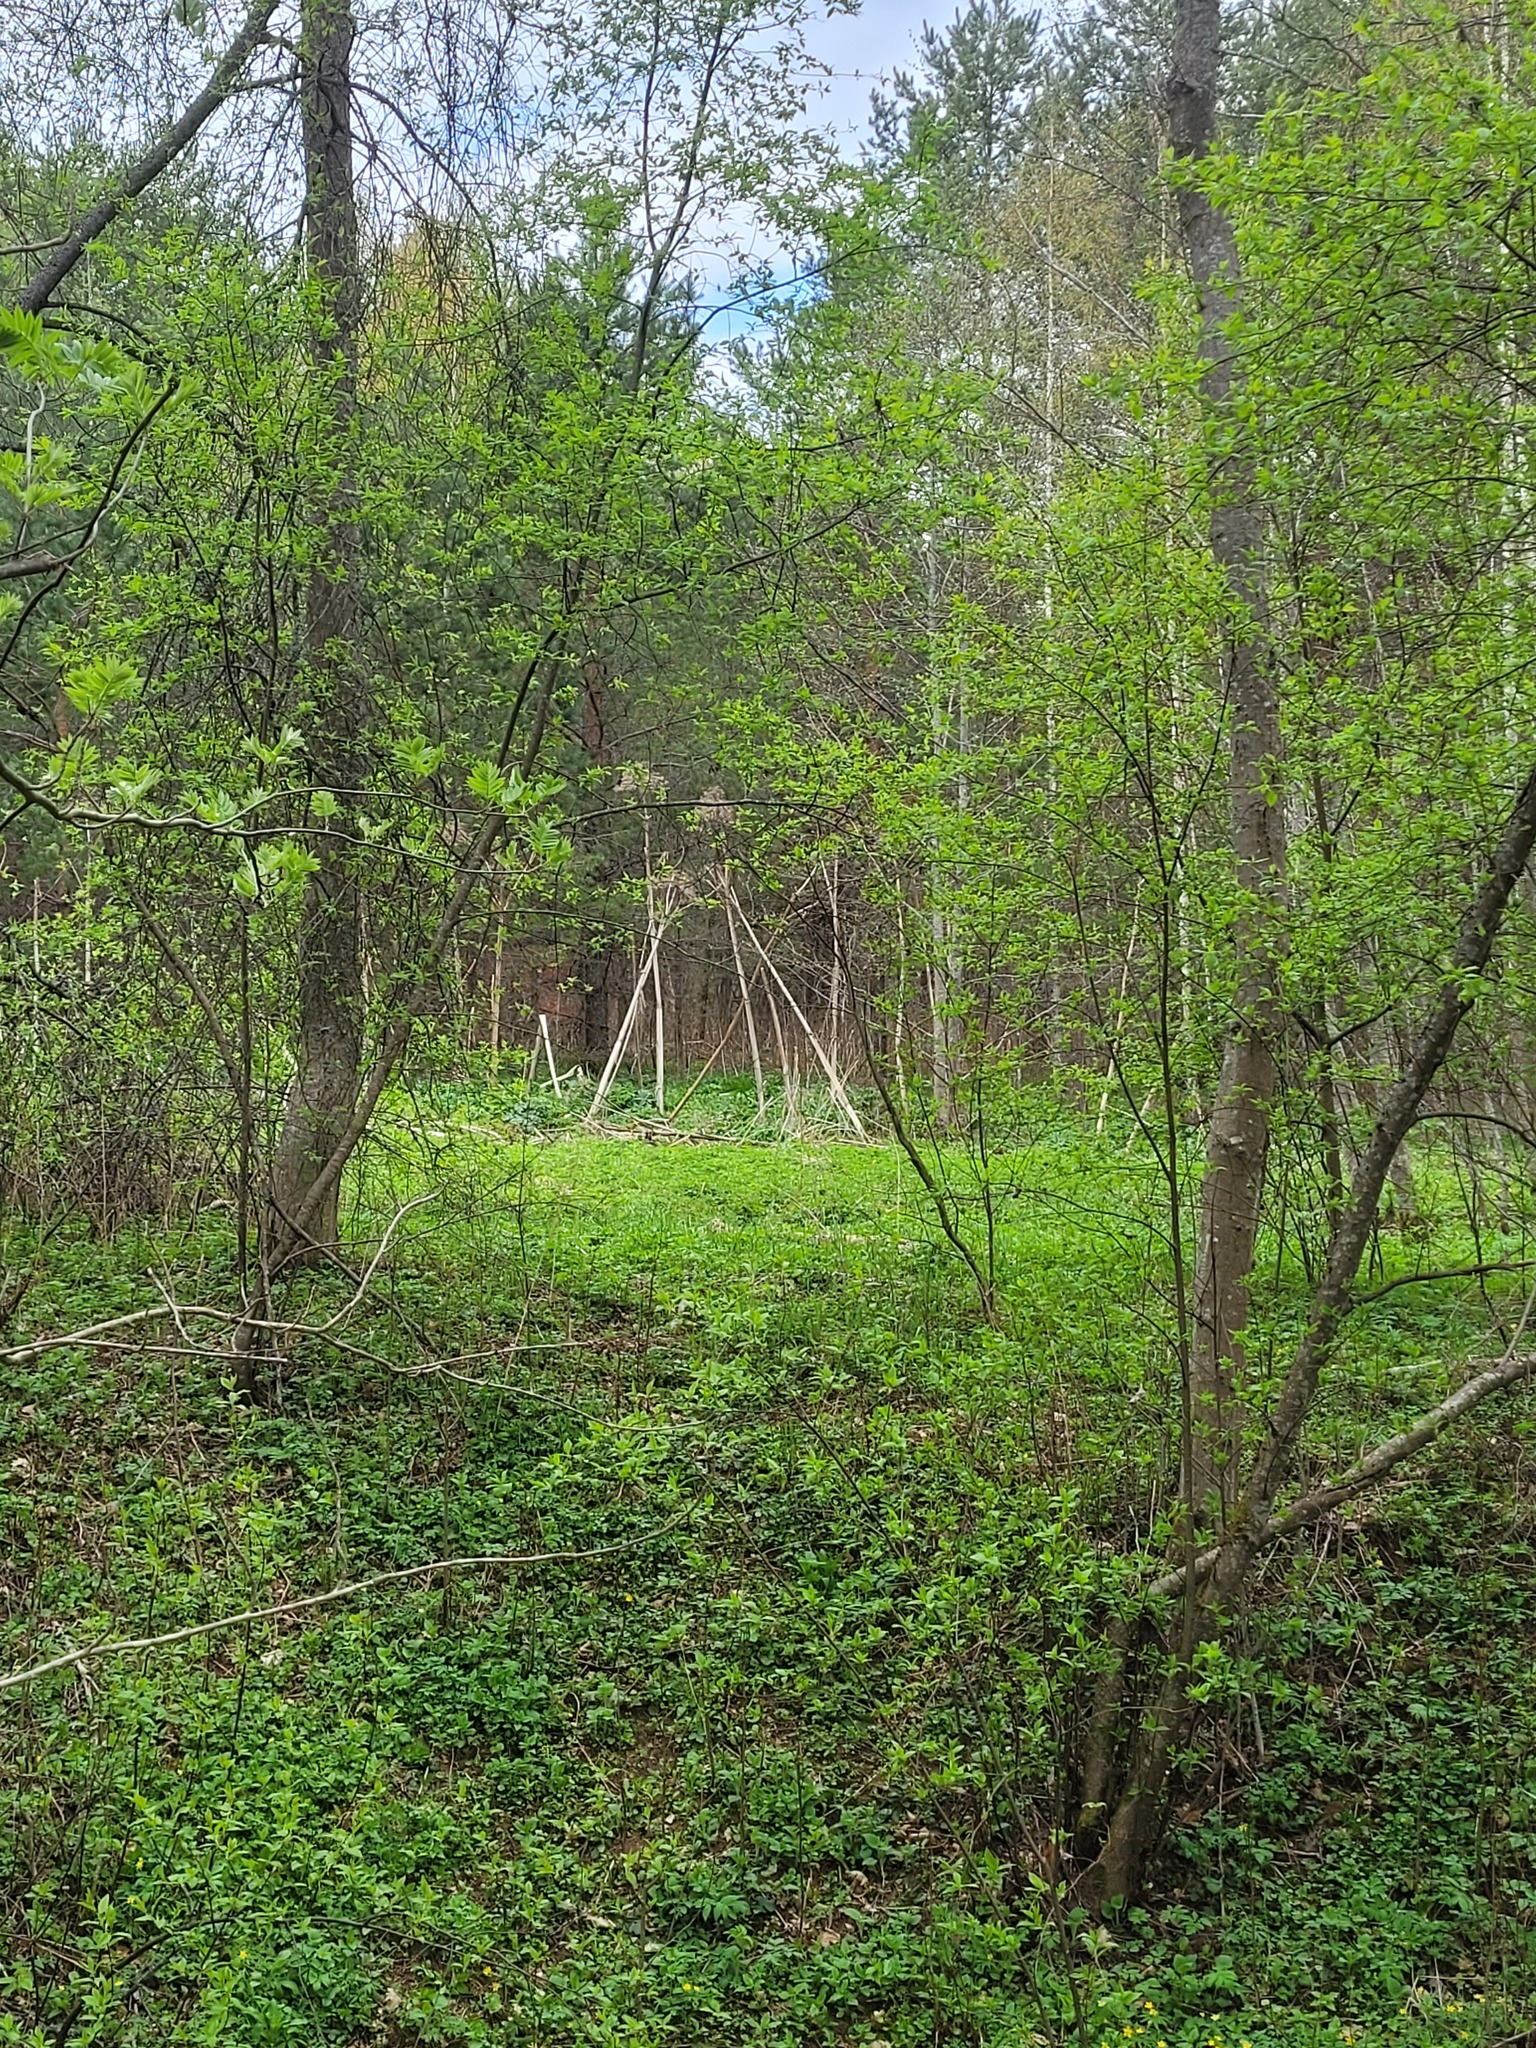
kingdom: Plantae
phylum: Tracheophyta
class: Magnoliopsida
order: Apiales
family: Apiaceae
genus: Heracleum
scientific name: Heracleum sosnowskyi
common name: Sosnowsky's hogweed
